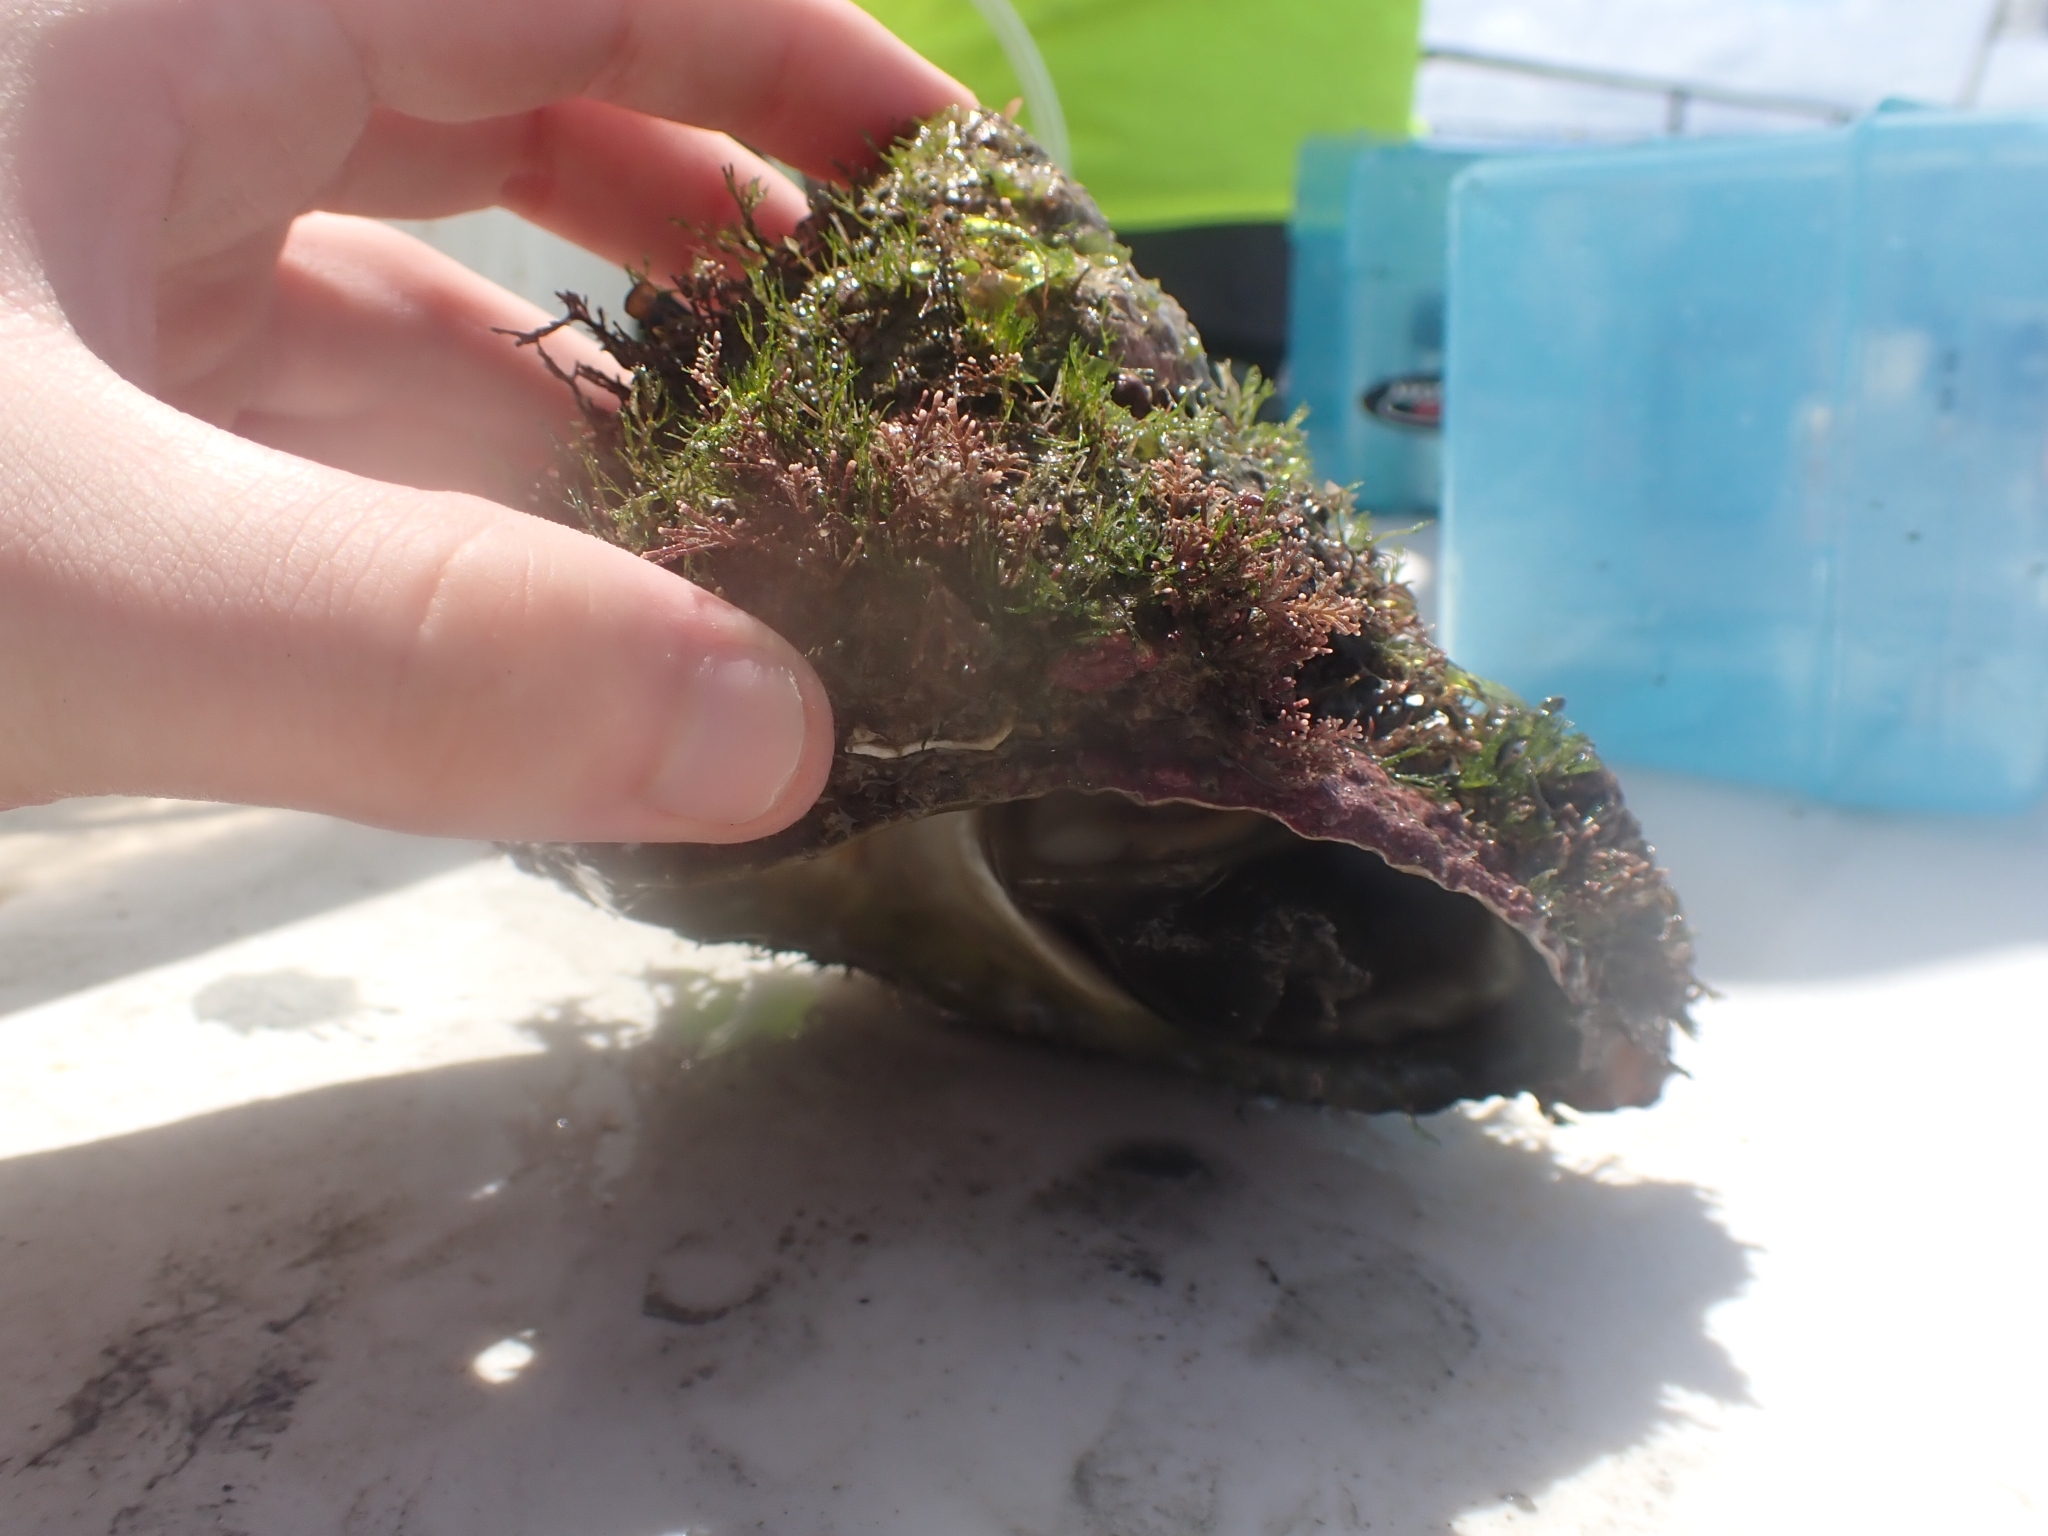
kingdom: Animalia
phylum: Mollusca
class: Gastropoda
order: Trochida
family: Turbinidae
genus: Cookia
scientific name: Cookia sulcata
